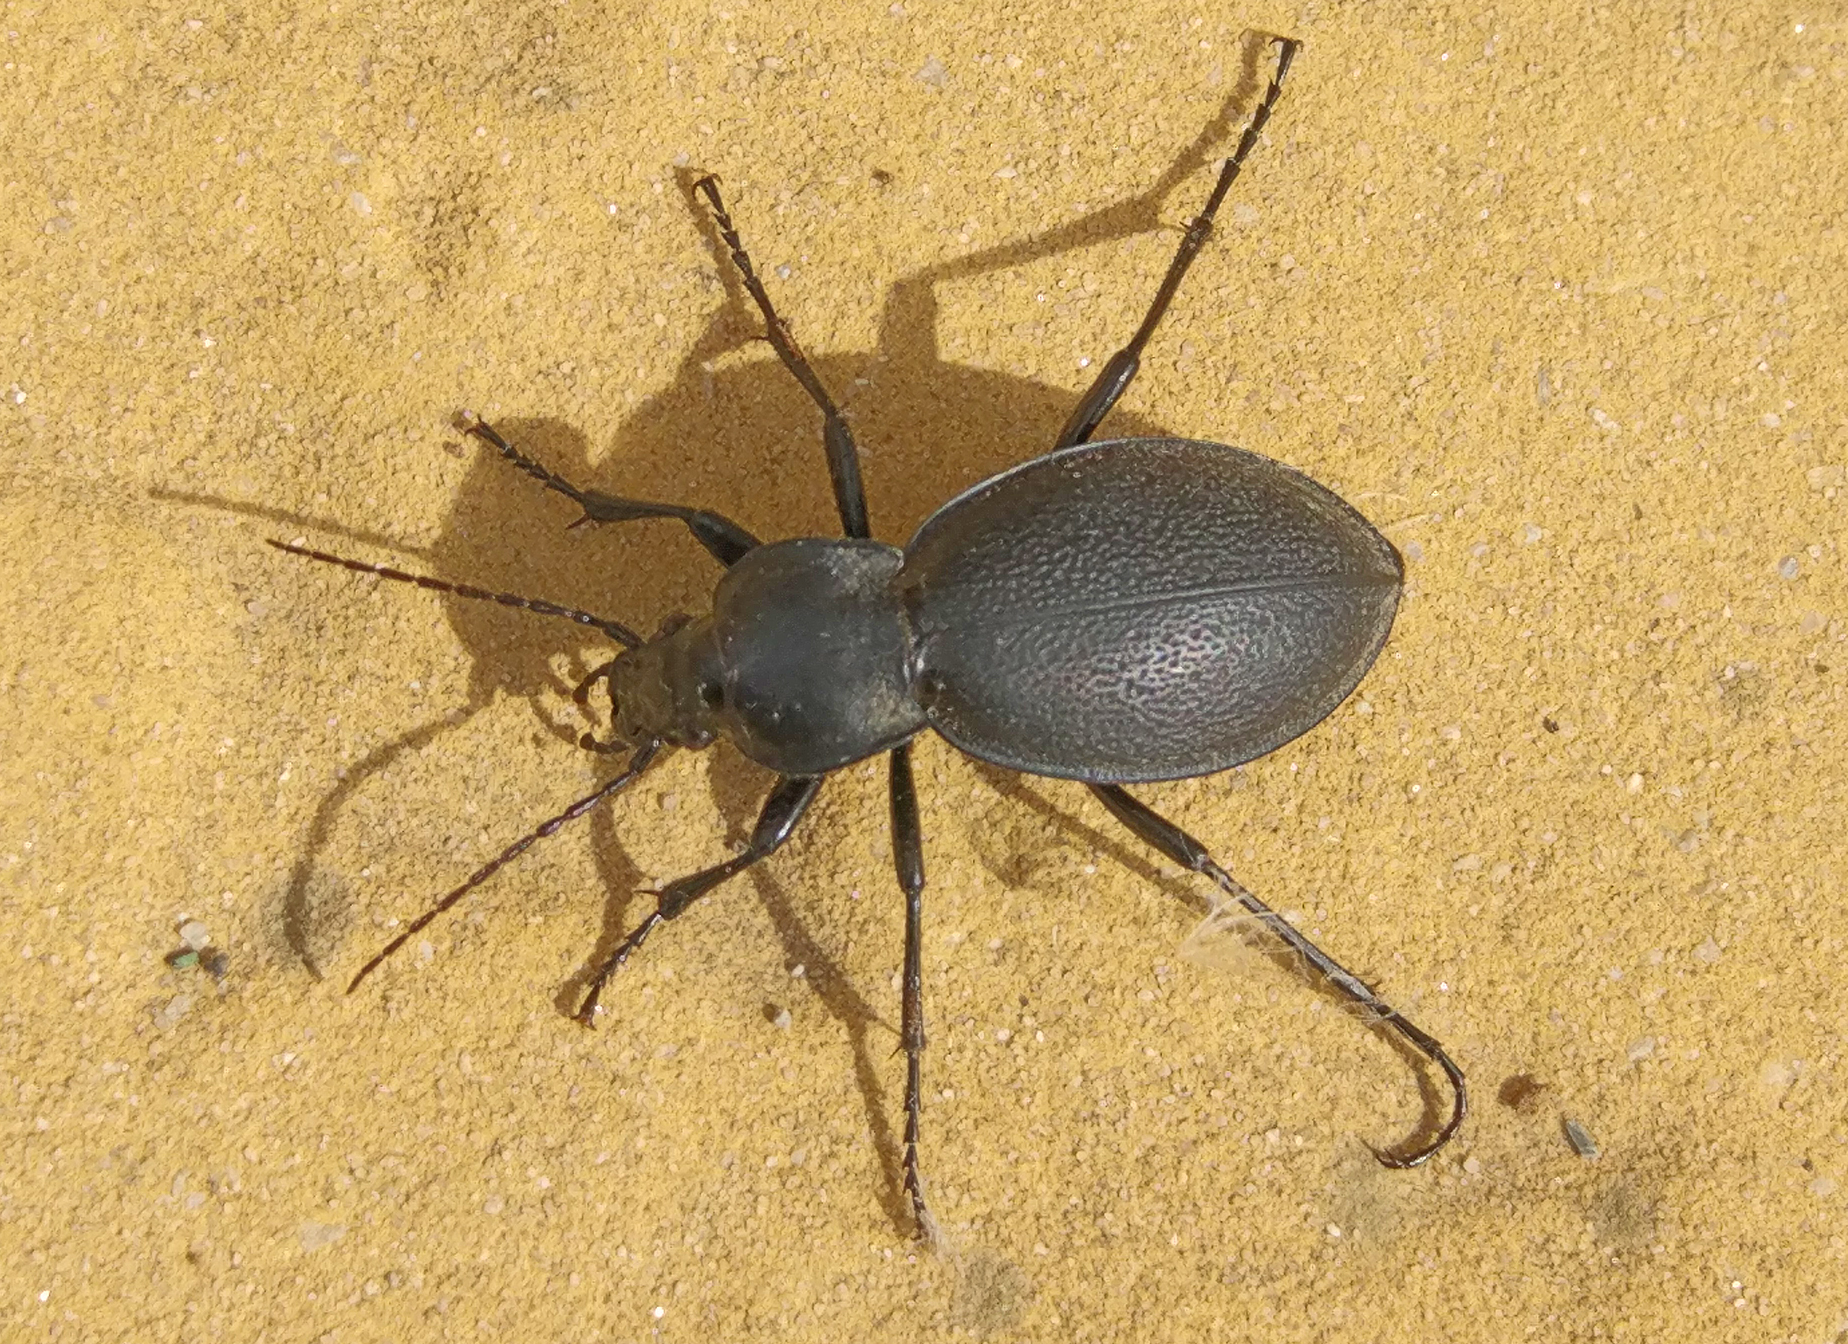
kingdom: Animalia
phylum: Arthropoda
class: Insecta
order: Coleoptera
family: Carabidae
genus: Carabus
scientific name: Carabus coriaceus
